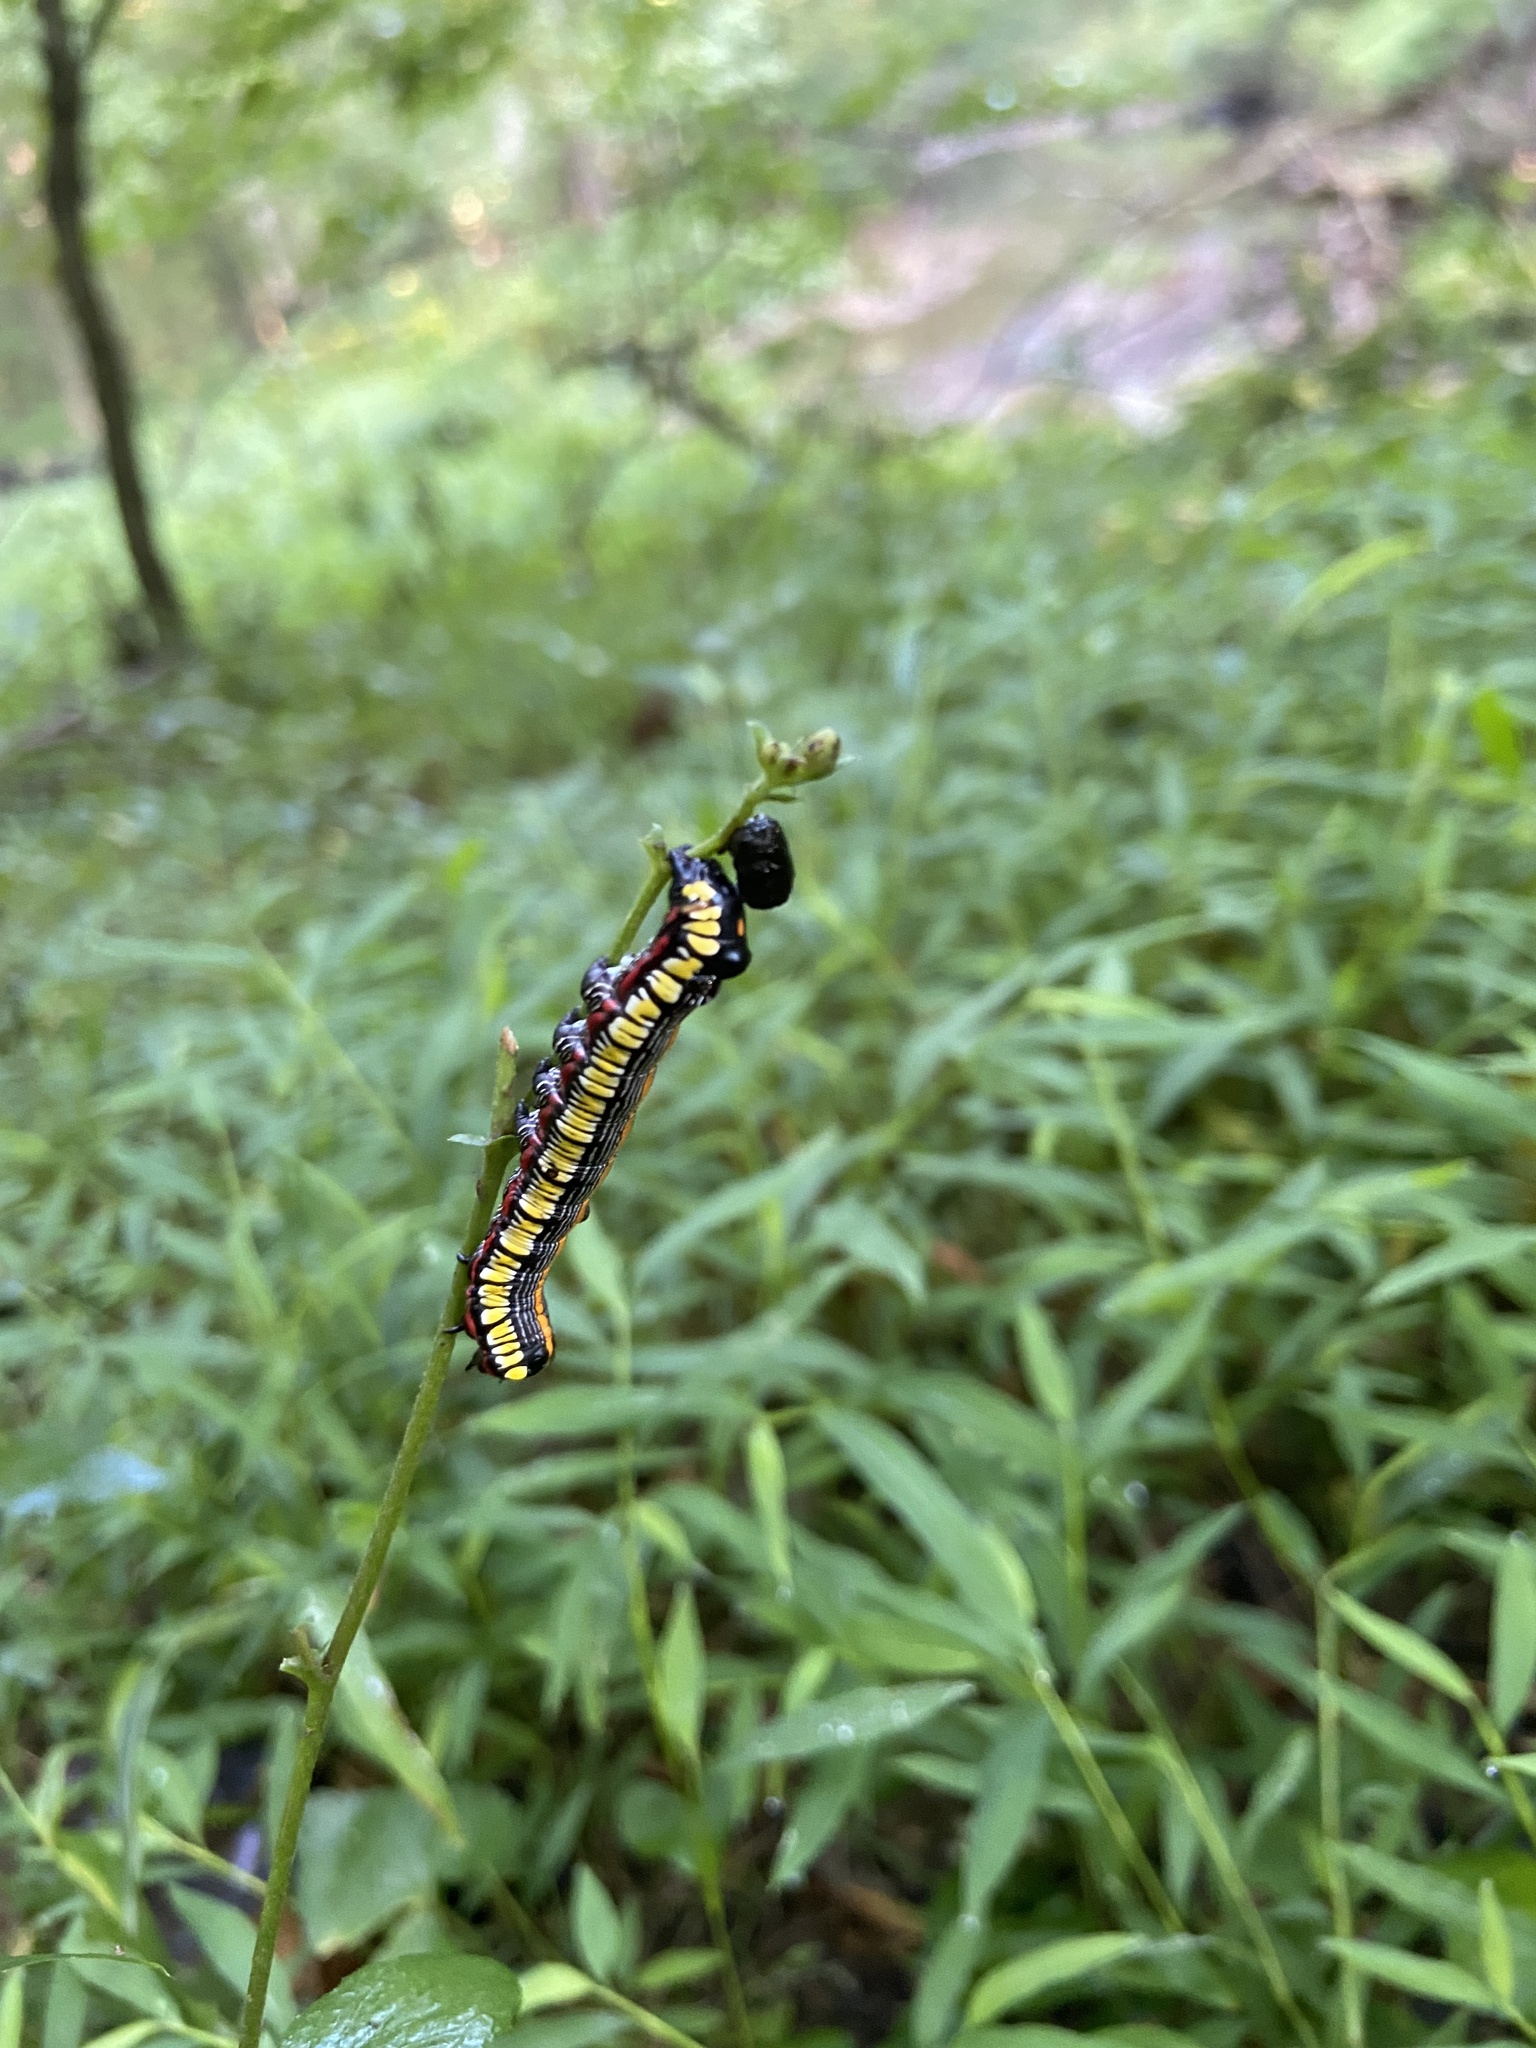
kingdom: Animalia
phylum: Arthropoda
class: Insecta
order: Lepidoptera
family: Noctuidae
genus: Cucullia
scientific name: Cucullia convexipennis
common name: Brown-hooded owlet
